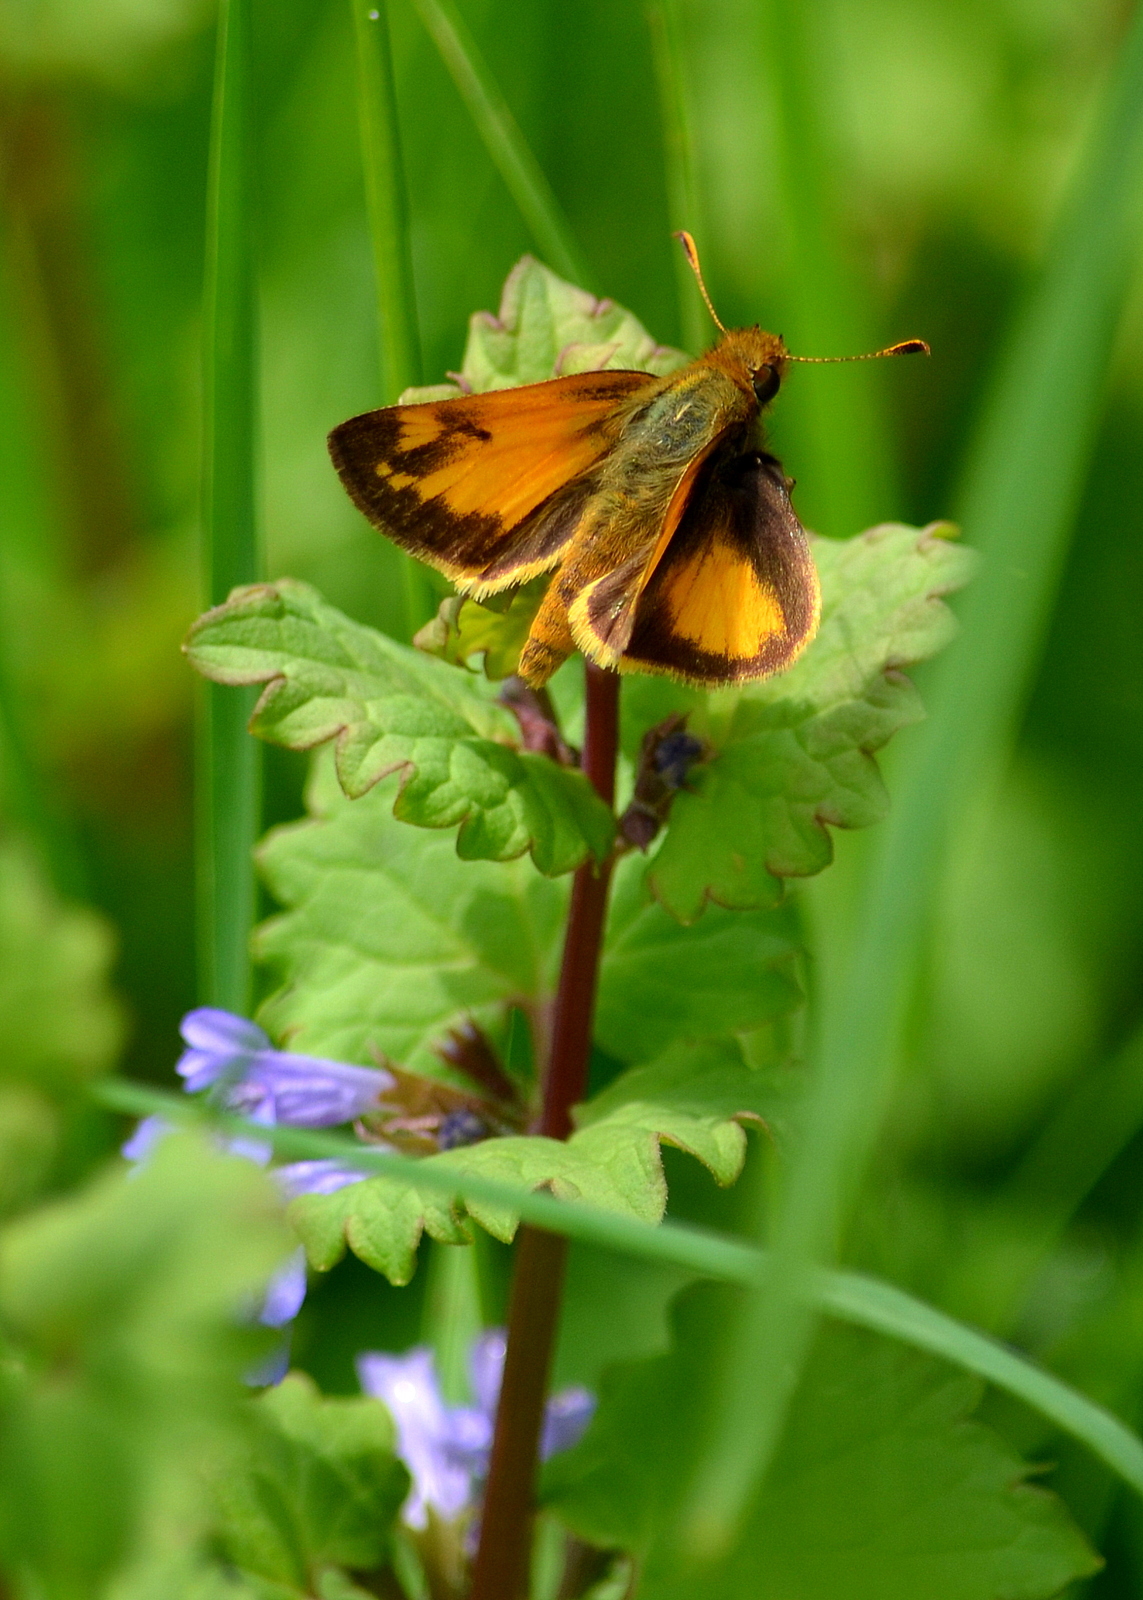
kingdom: Animalia
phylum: Arthropoda
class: Insecta
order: Lepidoptera
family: Hesperiidae
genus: Lon
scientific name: Lon zabulon
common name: Zabulon skipper
